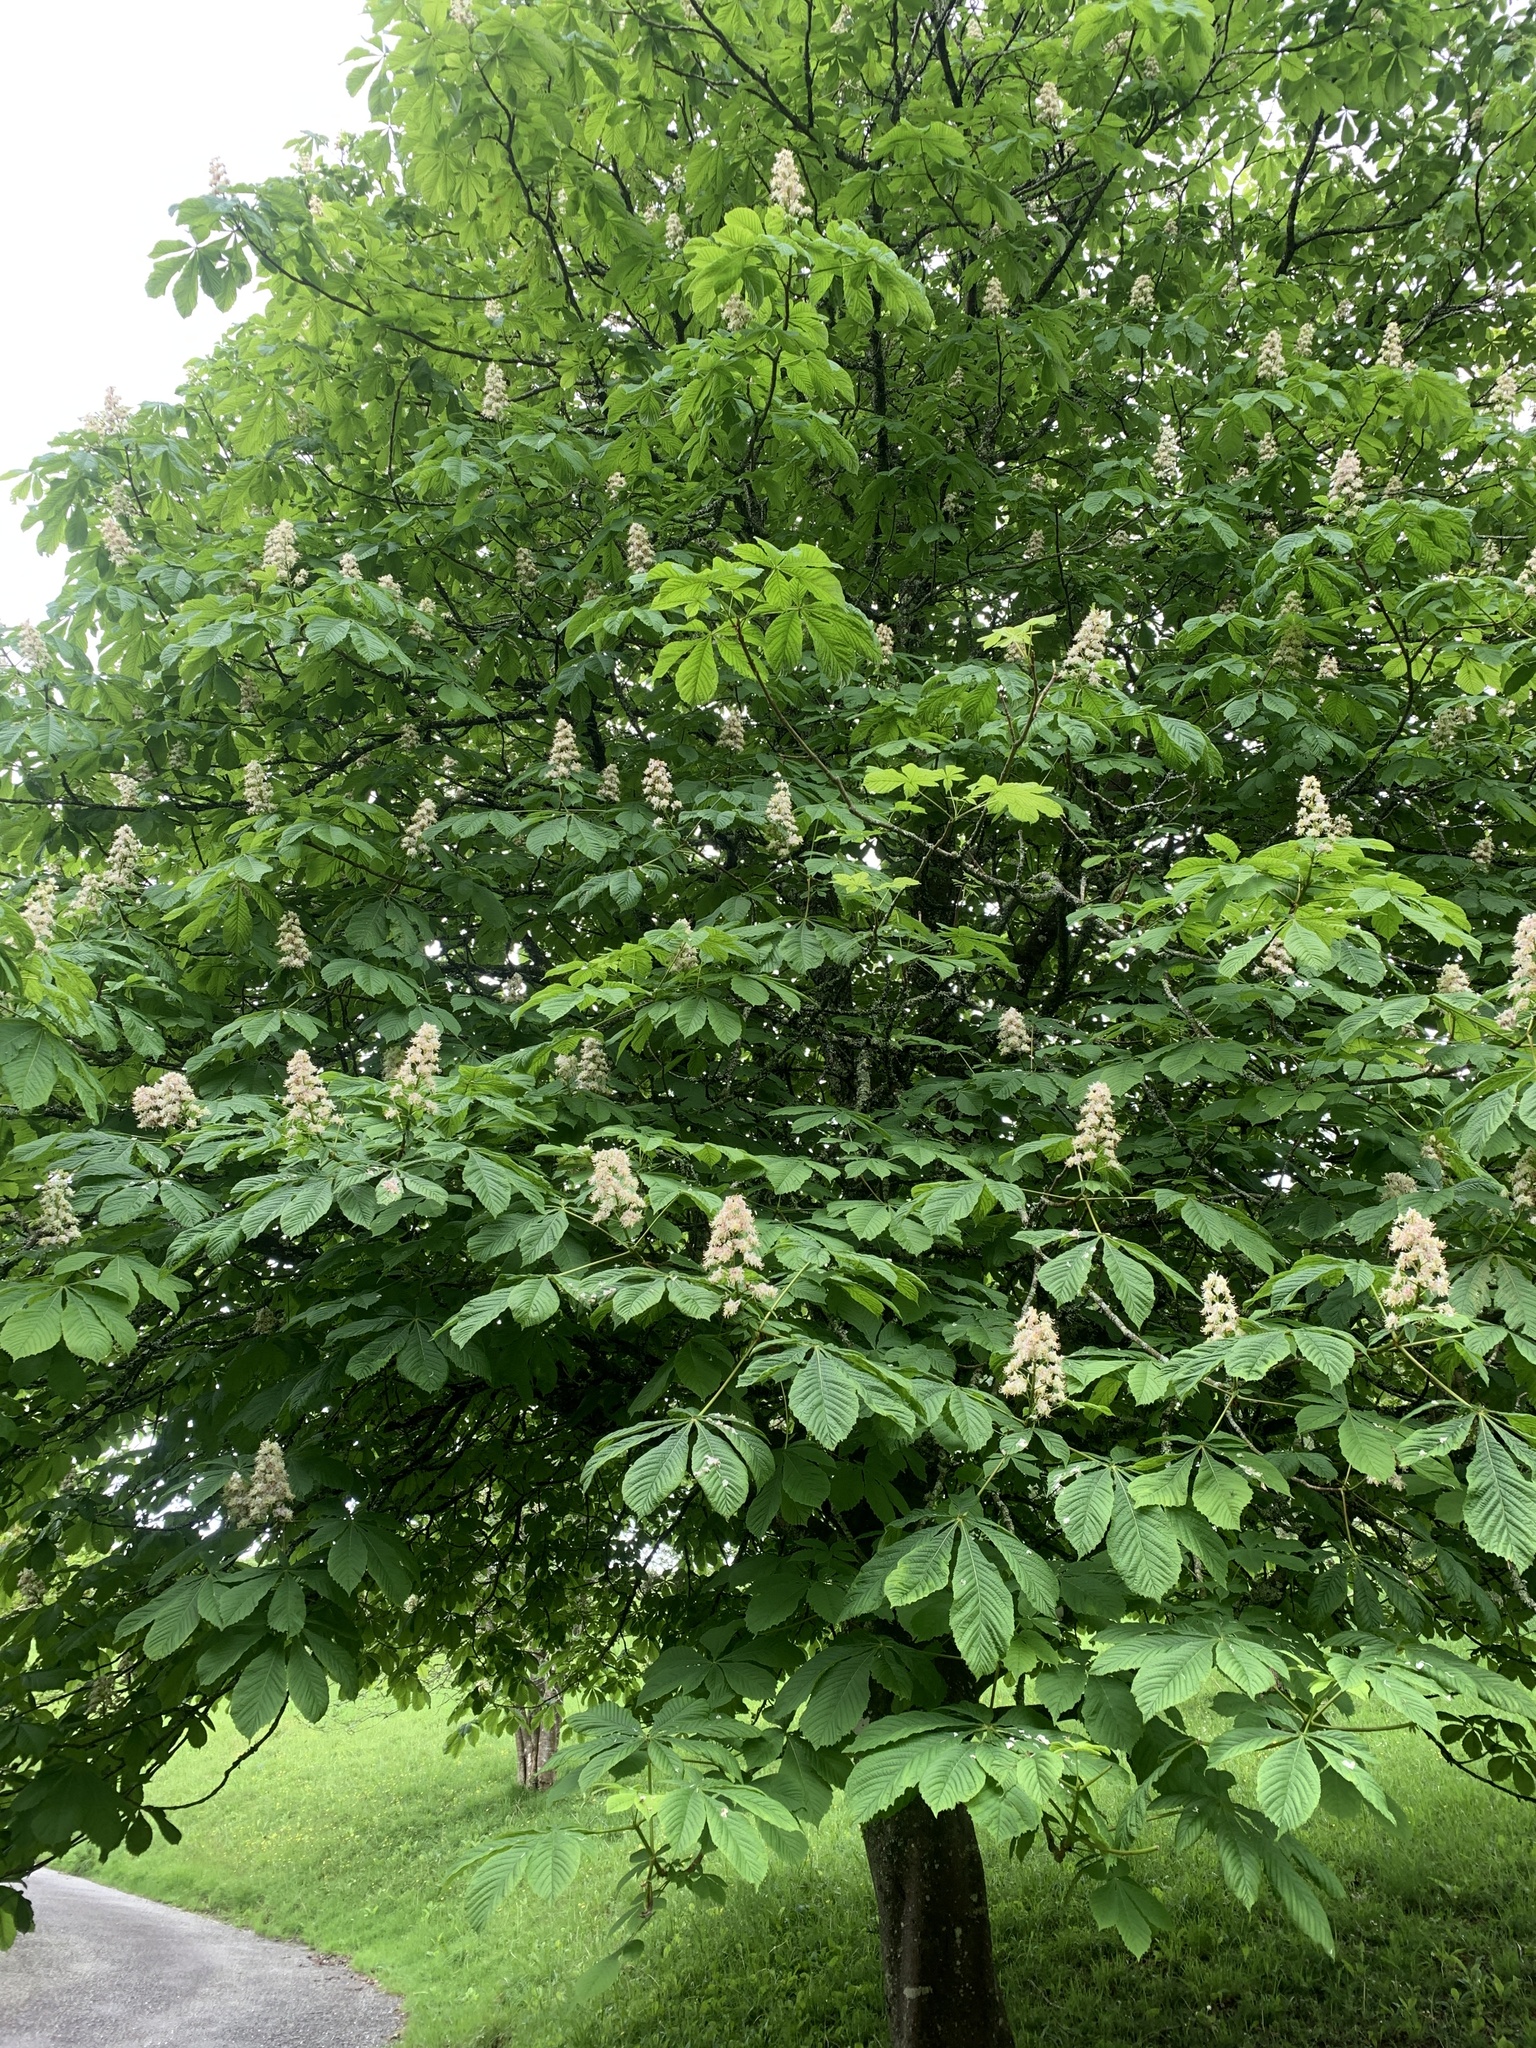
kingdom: Plantae
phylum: Tracheophyta
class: Magnoliopsida
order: Sapindales
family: Sapindaceae
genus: Aesculus
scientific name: Aesculus hippocastanum
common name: Horse-chestnut
